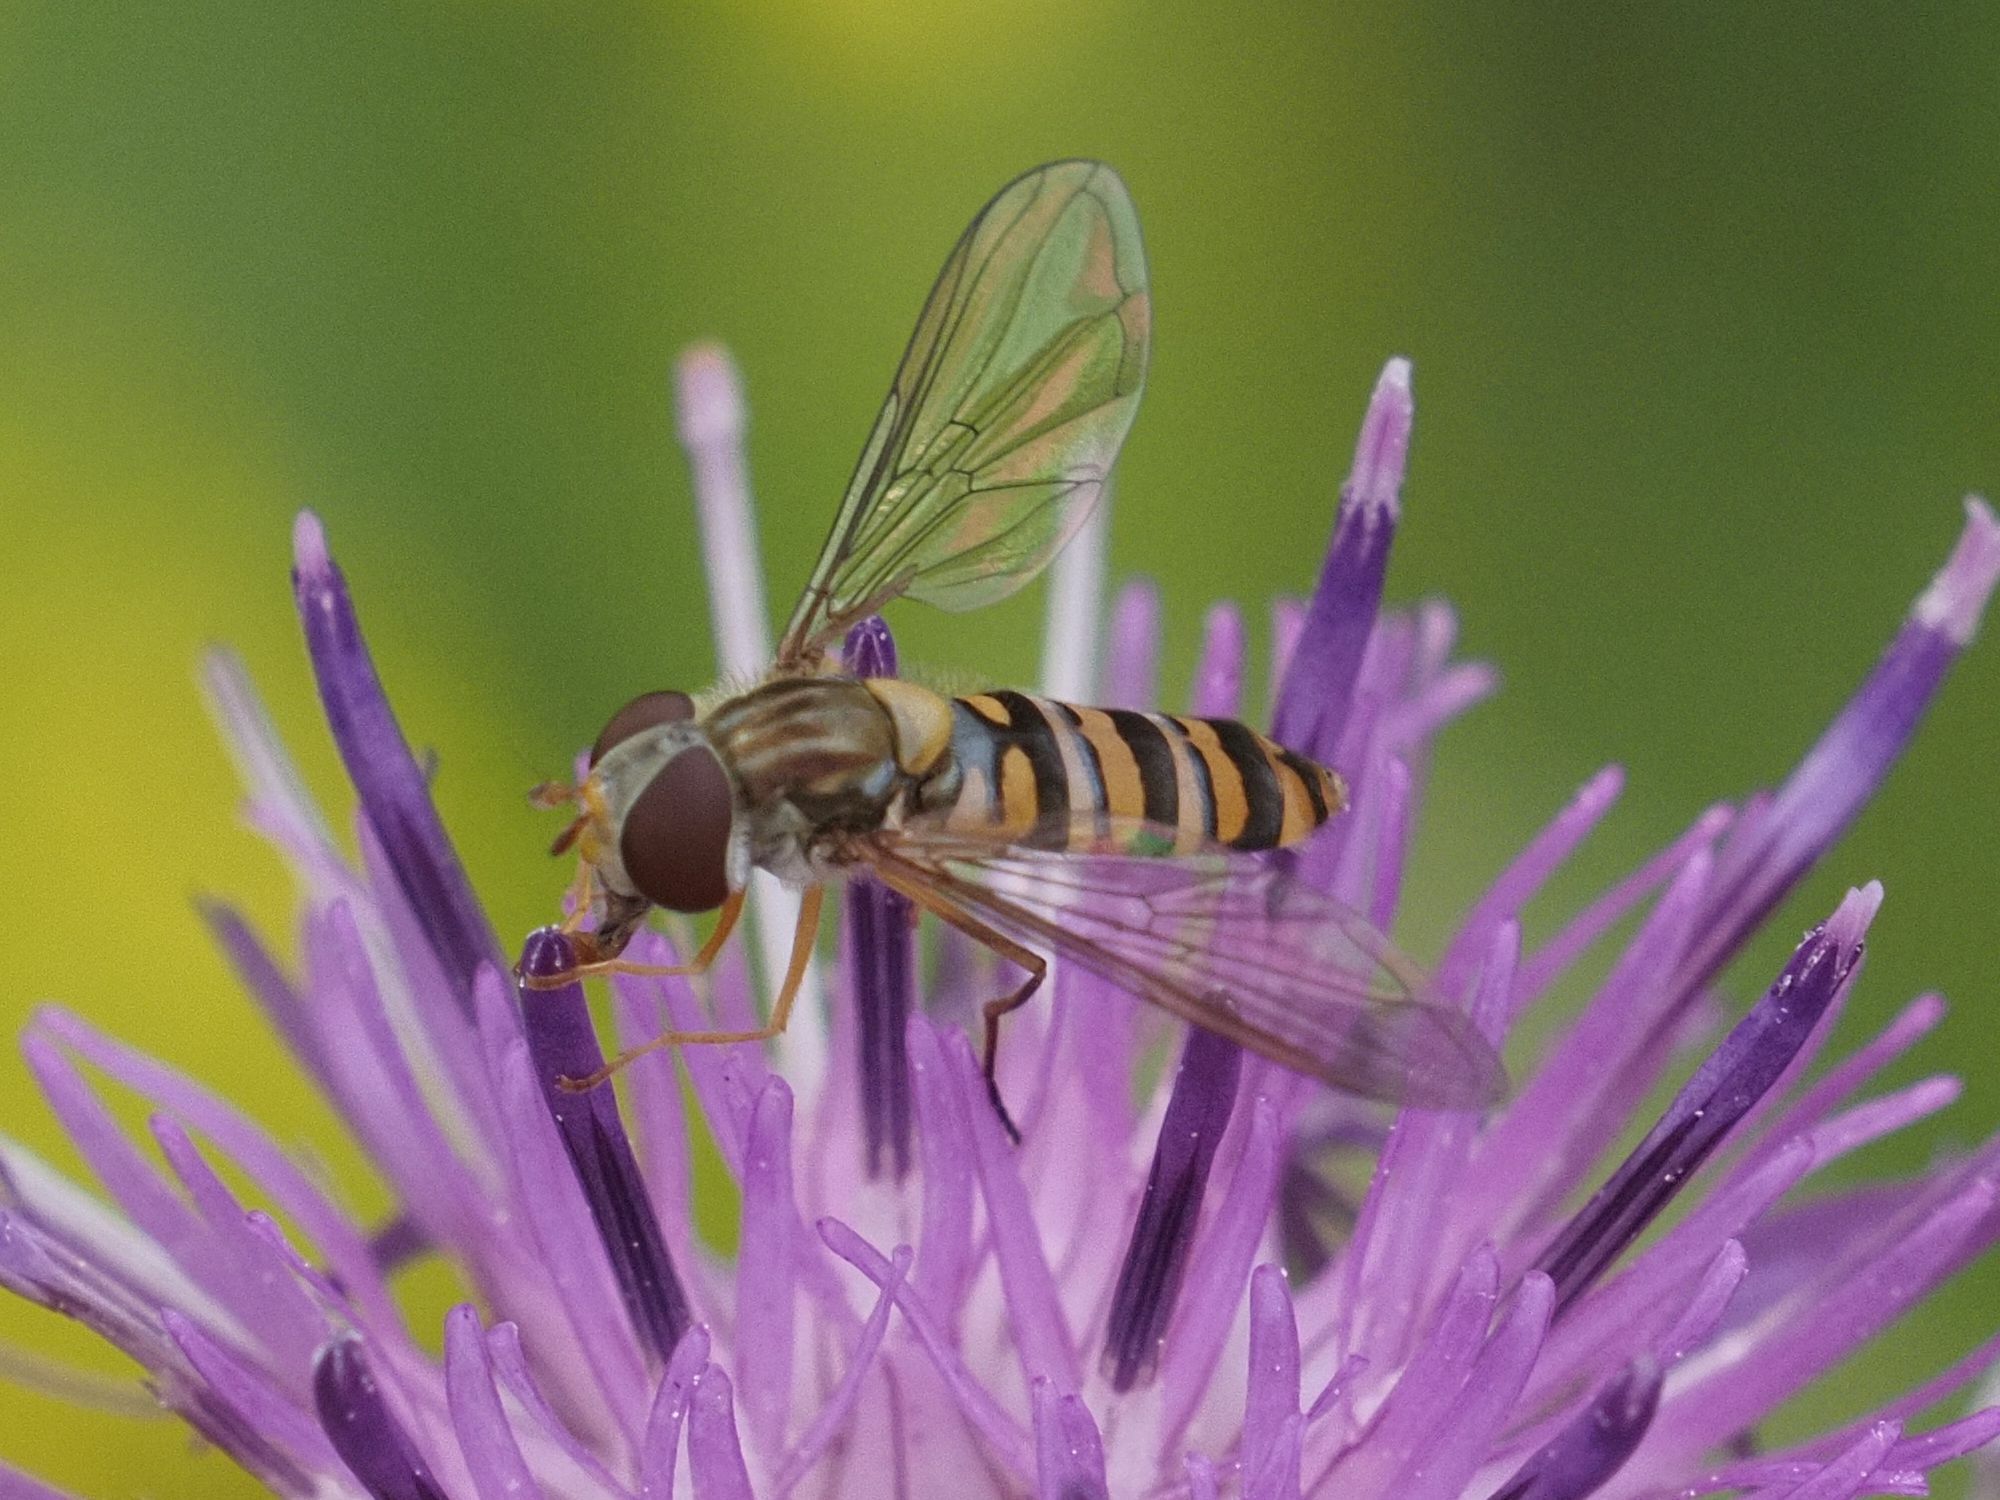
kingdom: Animalia
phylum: Arthropoda
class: Insecta
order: Diptera
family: Syrphidae
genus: Episyrphus
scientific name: Episyrphus balteatus
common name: Marmalade hoverfly
